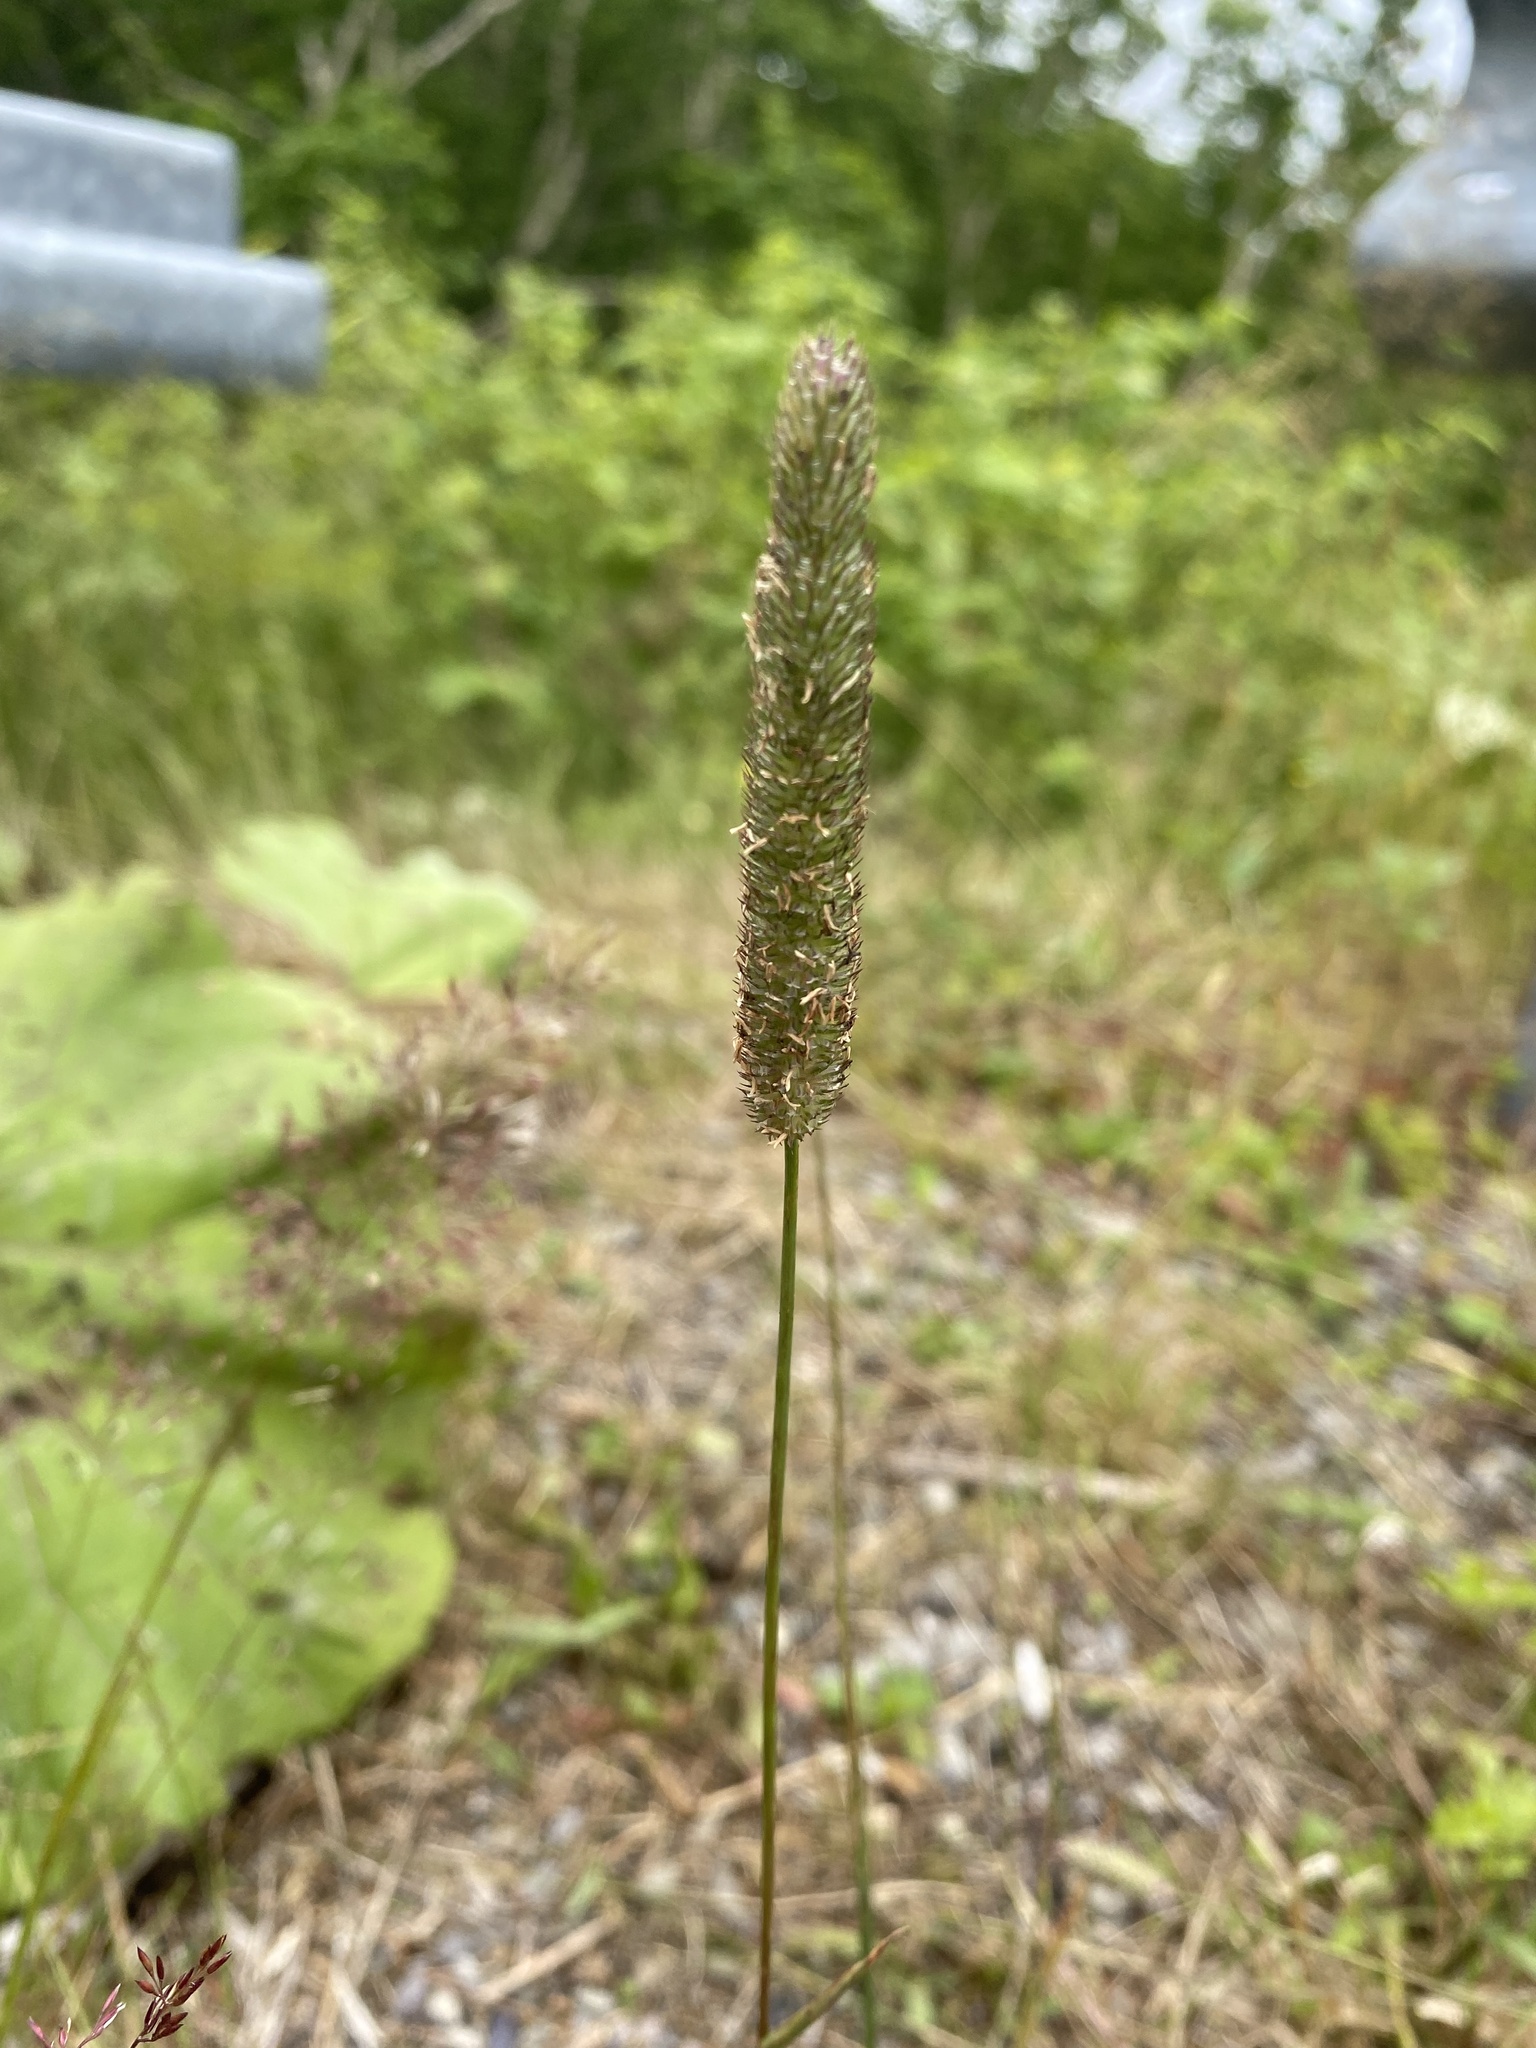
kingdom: Plantae
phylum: Tracheophyta
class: Liliopsida
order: Poales
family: Poaceae
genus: Phleum
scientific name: Phleum pratense
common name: Timothy grass
